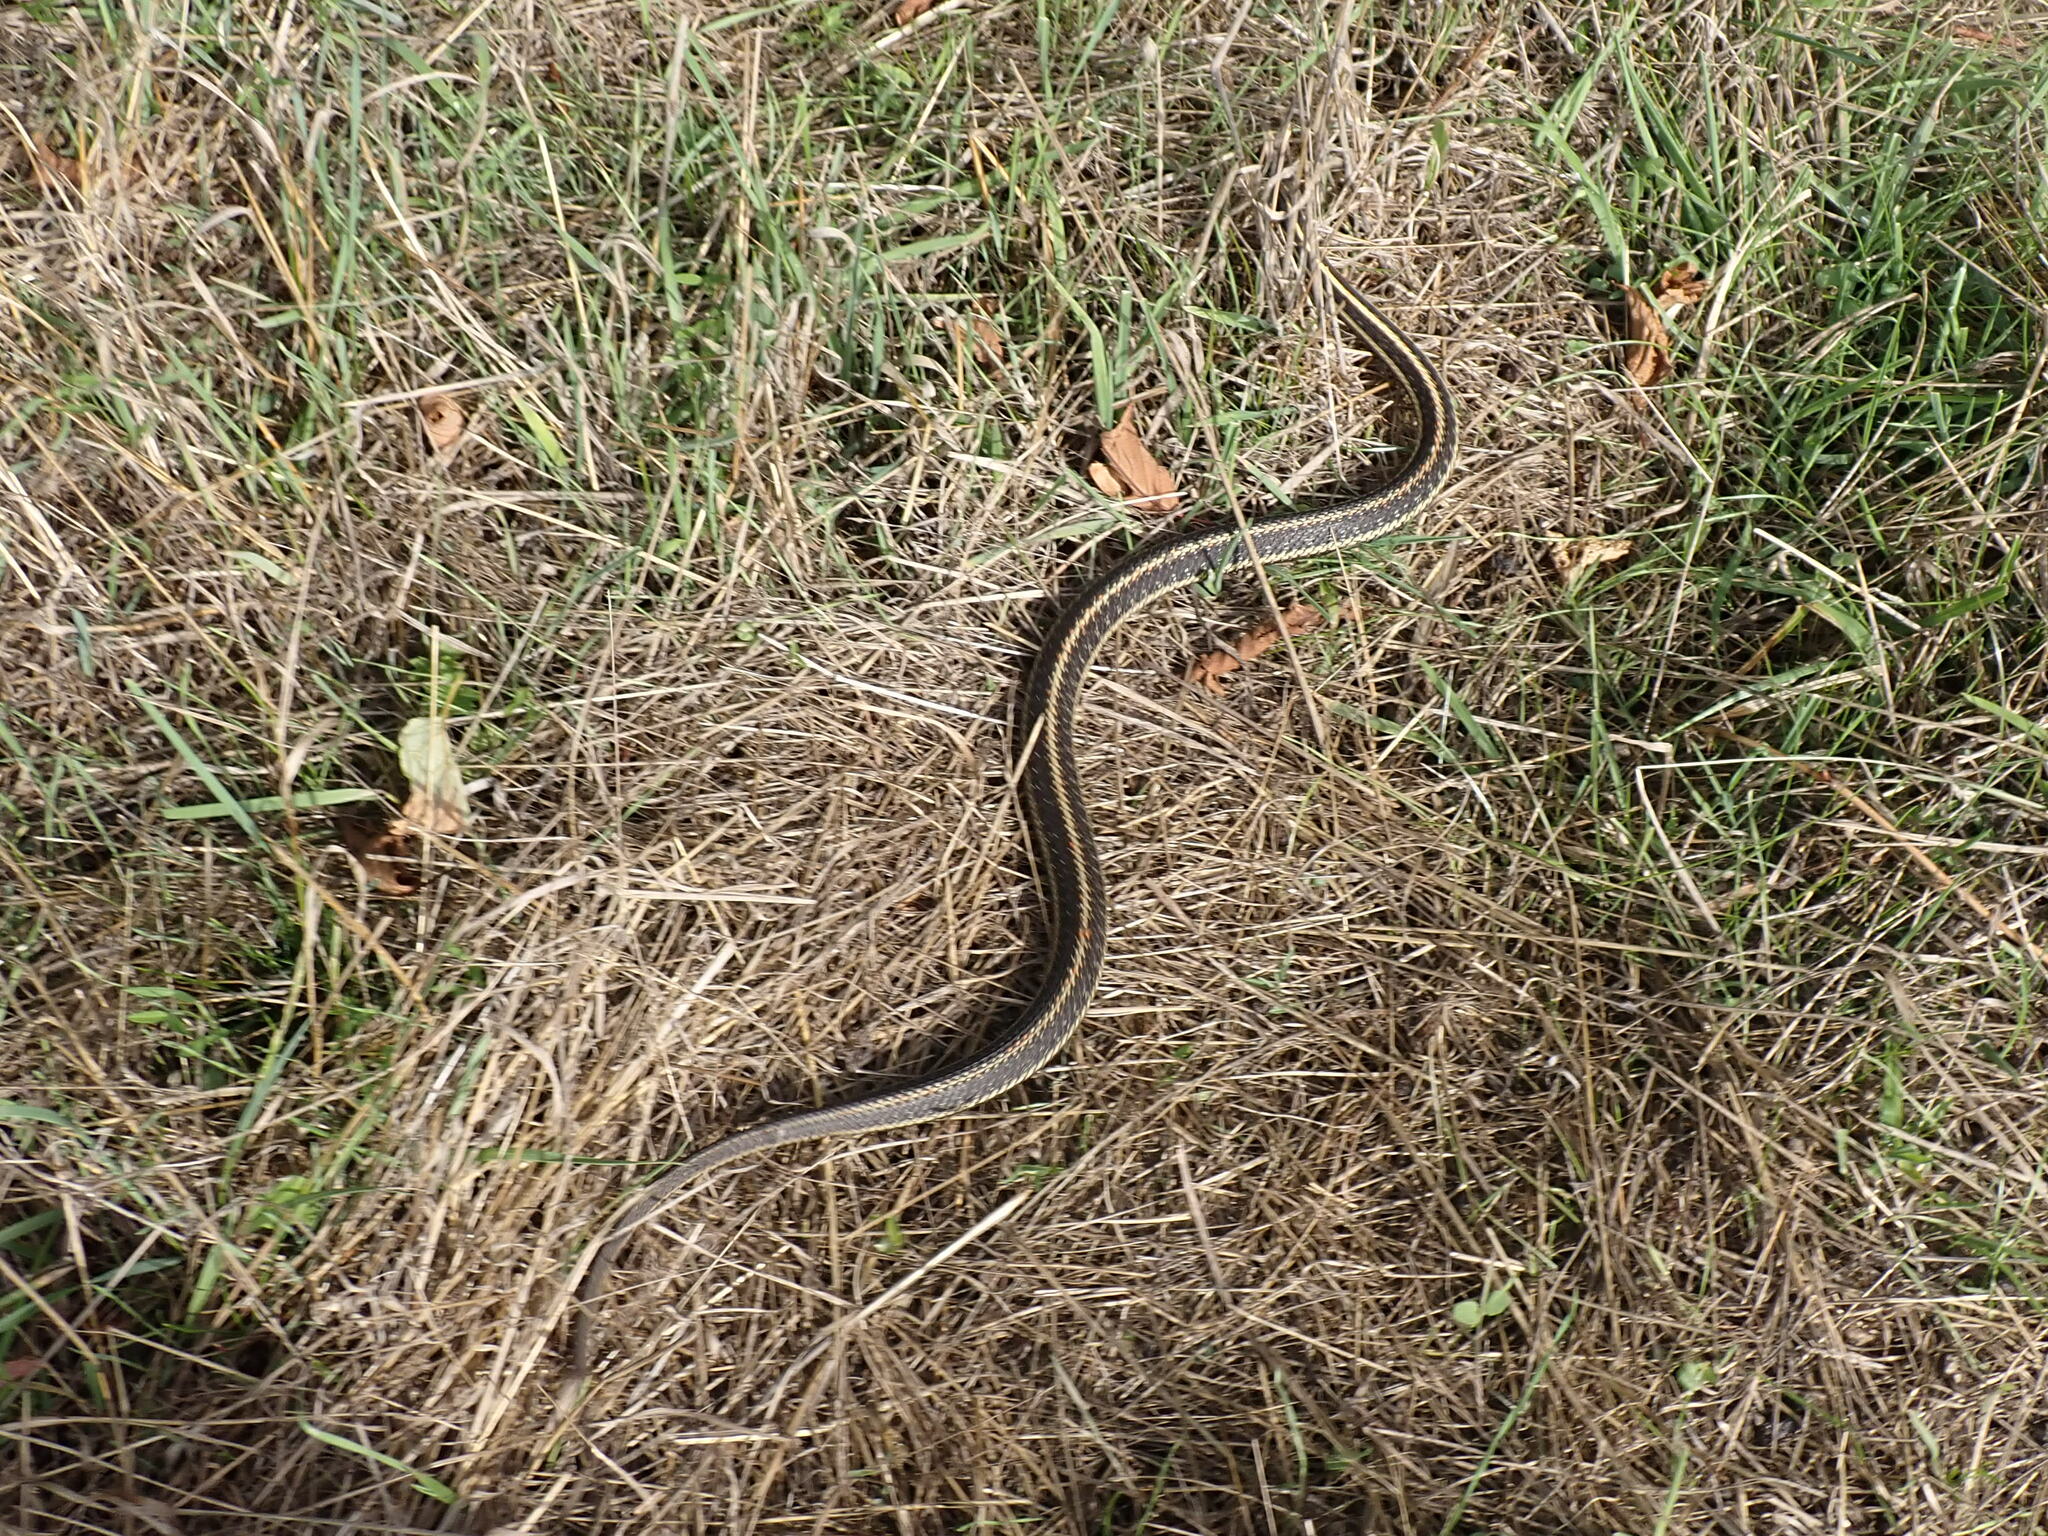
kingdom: Animalia
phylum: Chordata
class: Squamata
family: Colubridae
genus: Thamnophis
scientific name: Thamnophis ordinoides
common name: Northwestern garter snake
